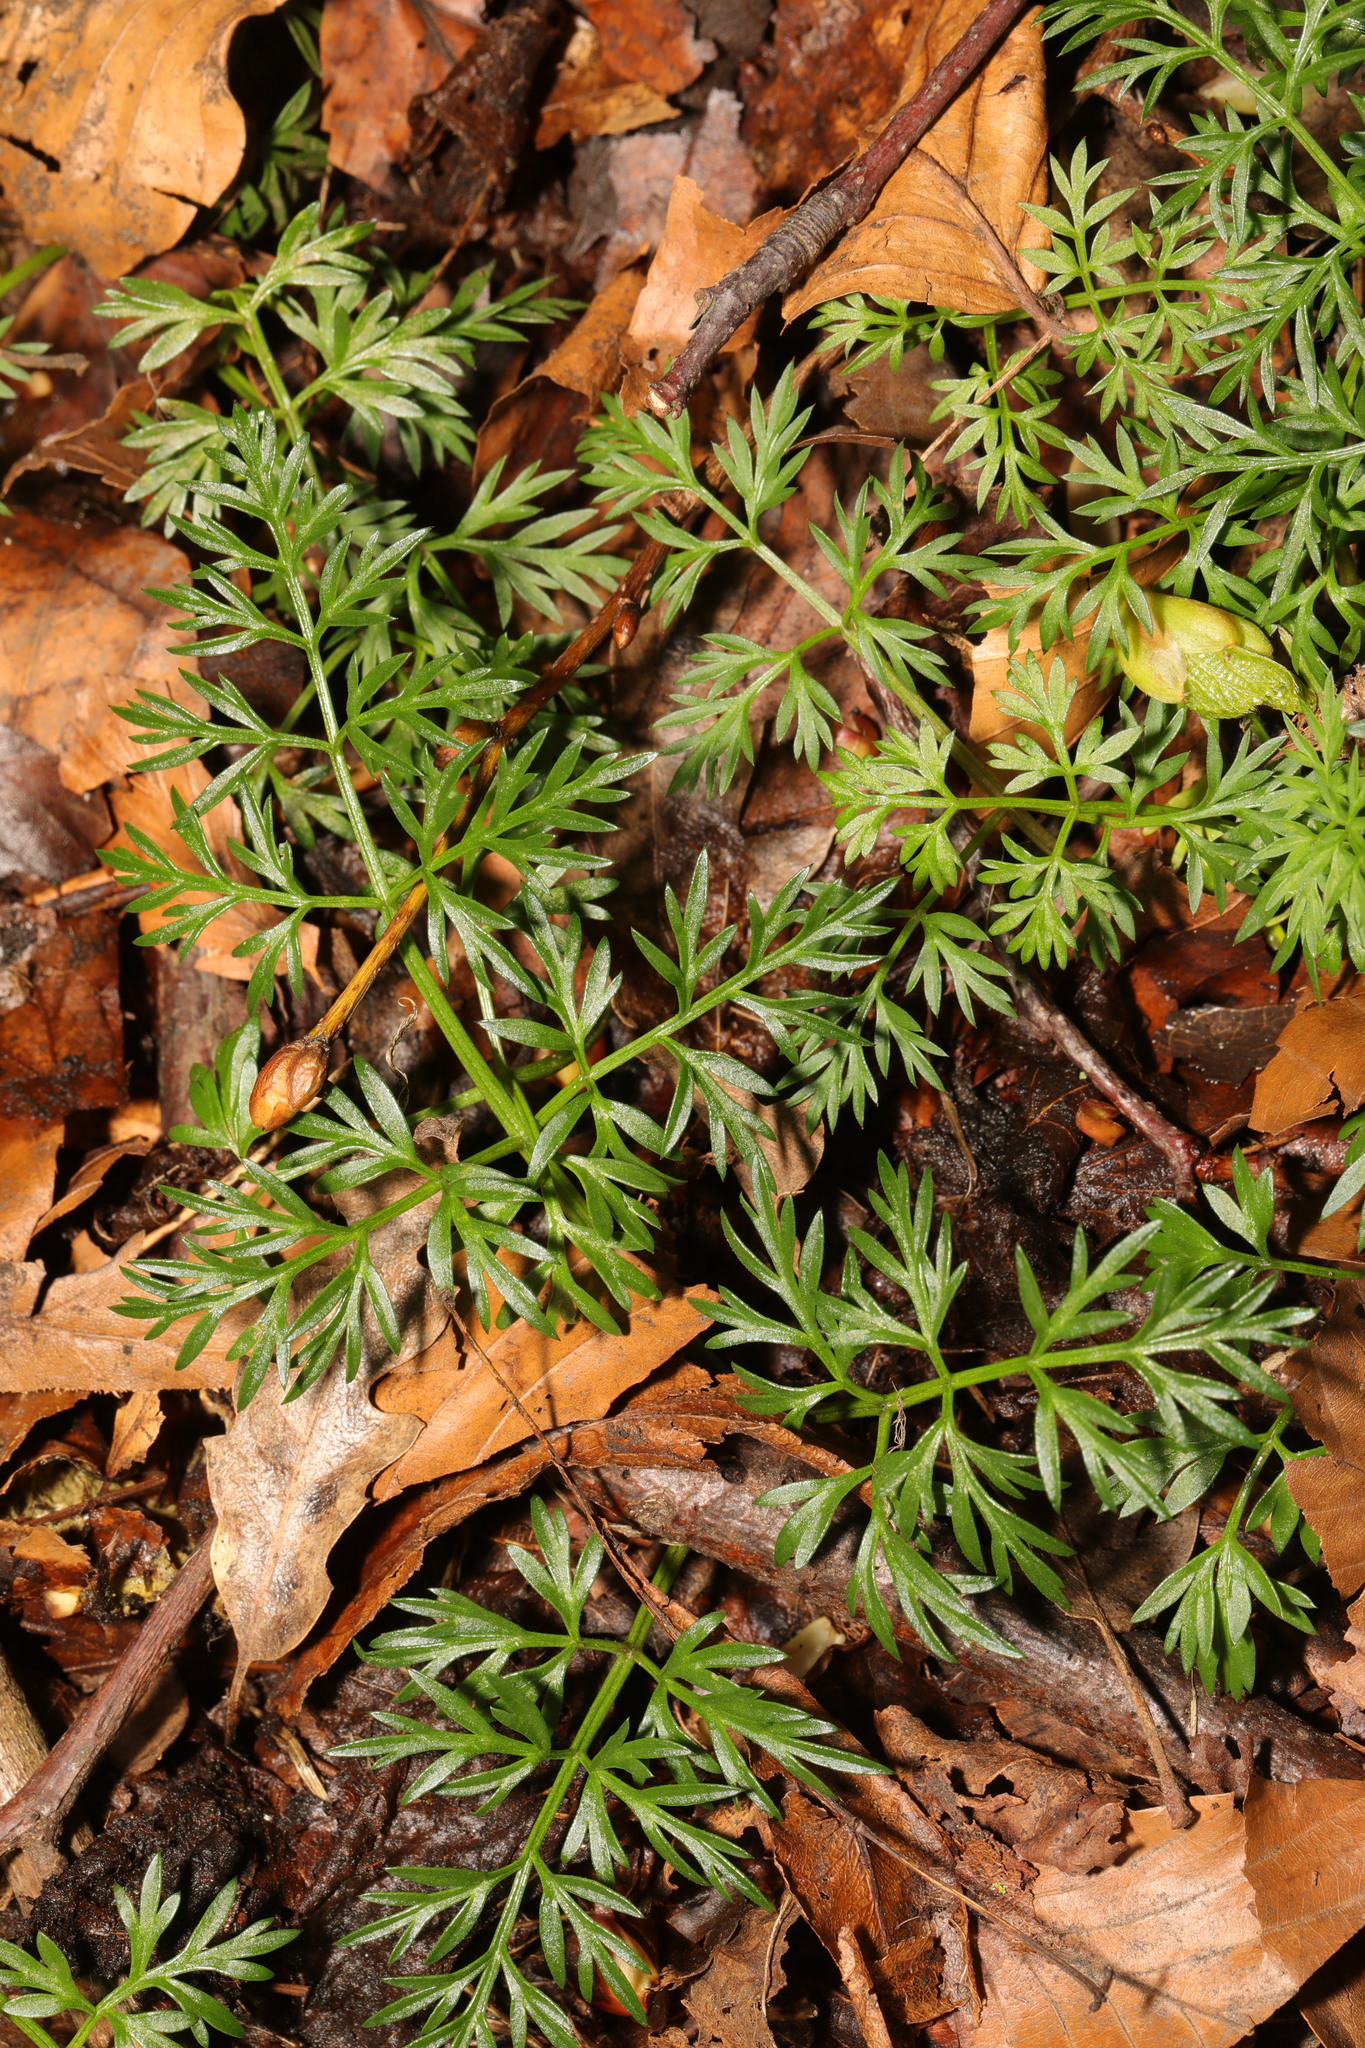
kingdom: Plantae
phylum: Tracheophyta
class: Magnoliopsida
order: Apiales
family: Apiaceae
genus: Conopodium
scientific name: Conopodium majus
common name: Pignut
